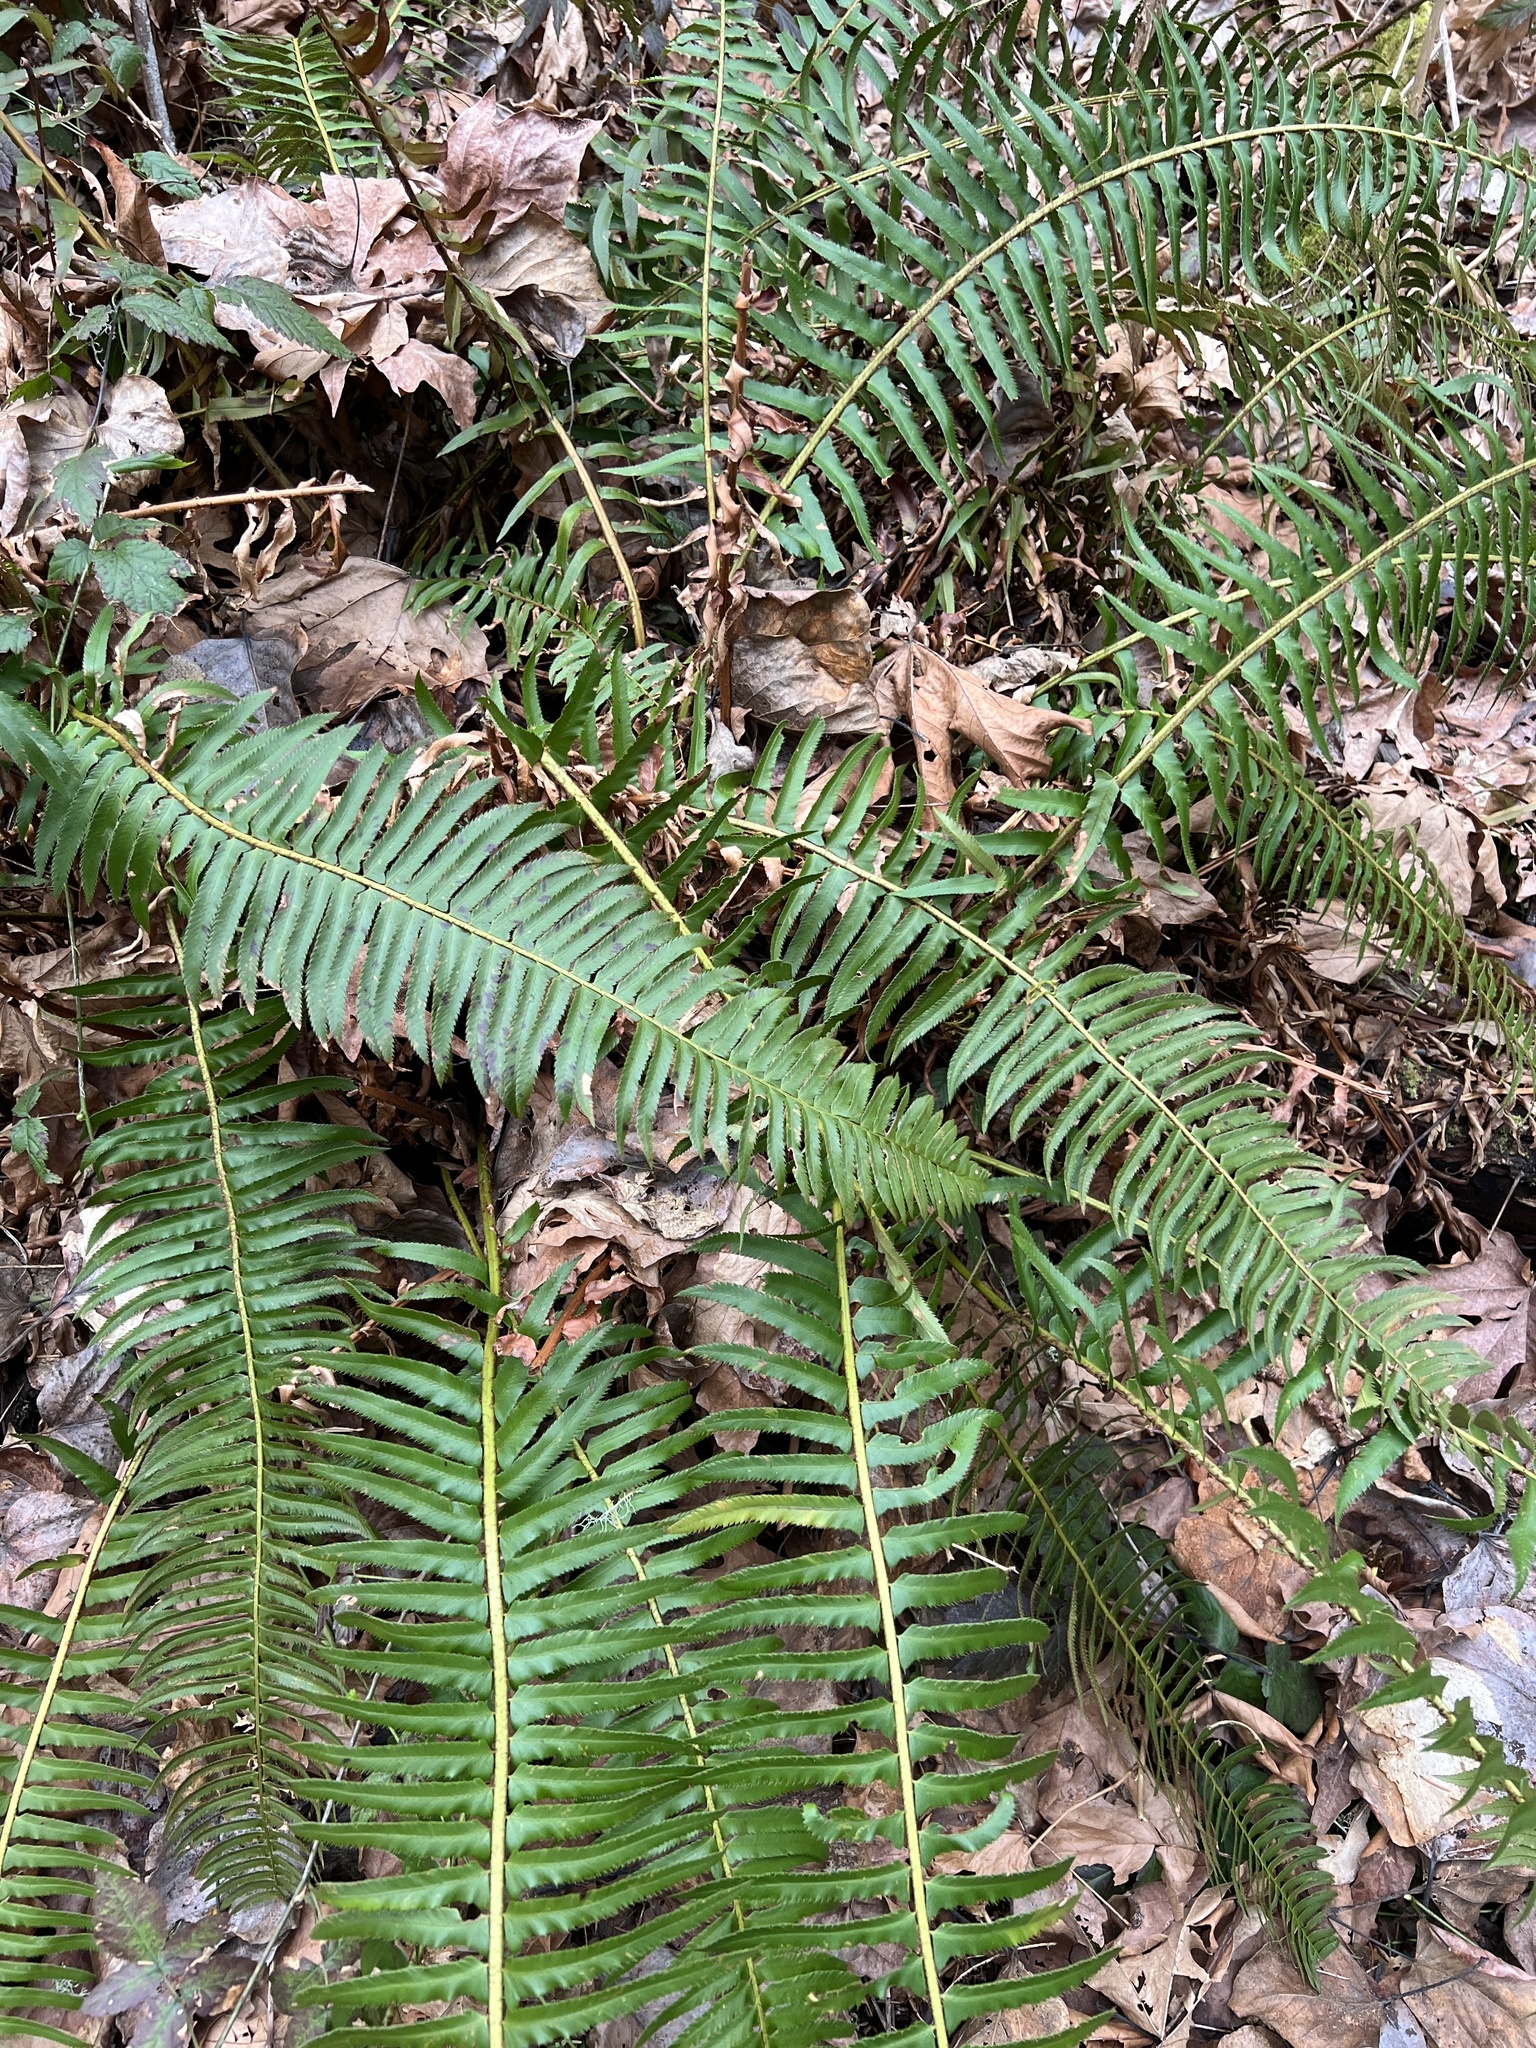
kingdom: Plantae
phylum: Tracheophyta
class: Polypodiopsida
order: Polypodiales
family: Dryopteridaceae
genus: Polystichum
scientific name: Polystichum munitum
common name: Western sword-fern
